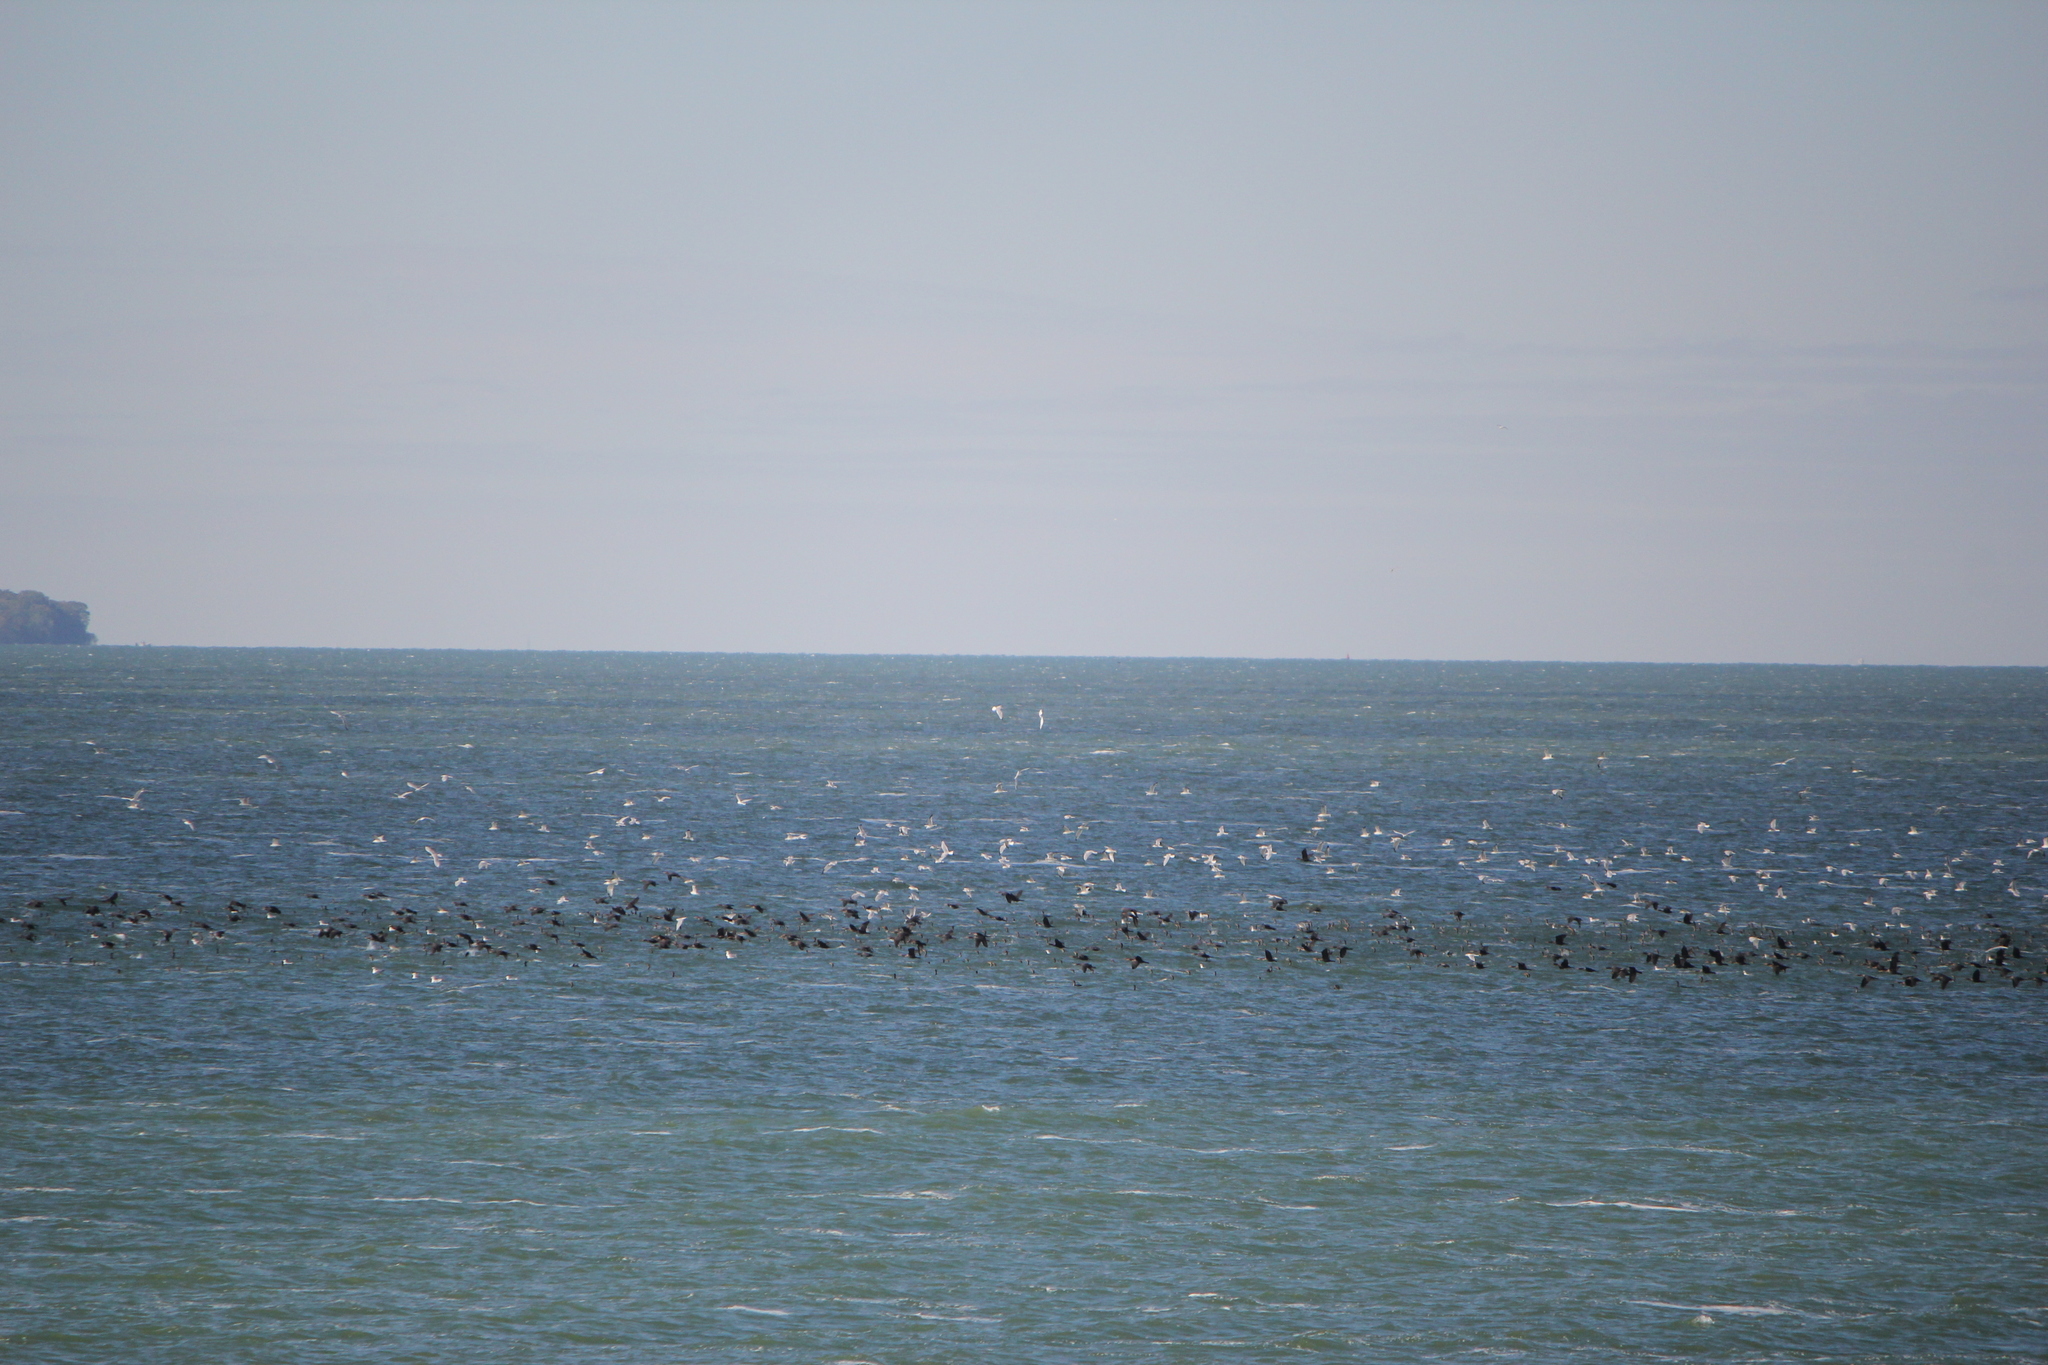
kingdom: Animalia
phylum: Chordata
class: Aves
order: Suliformes
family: Phalacrocoracidae
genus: Phalacrocorax
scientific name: Phalacrocorax auritus
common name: Double-crested cormorant
